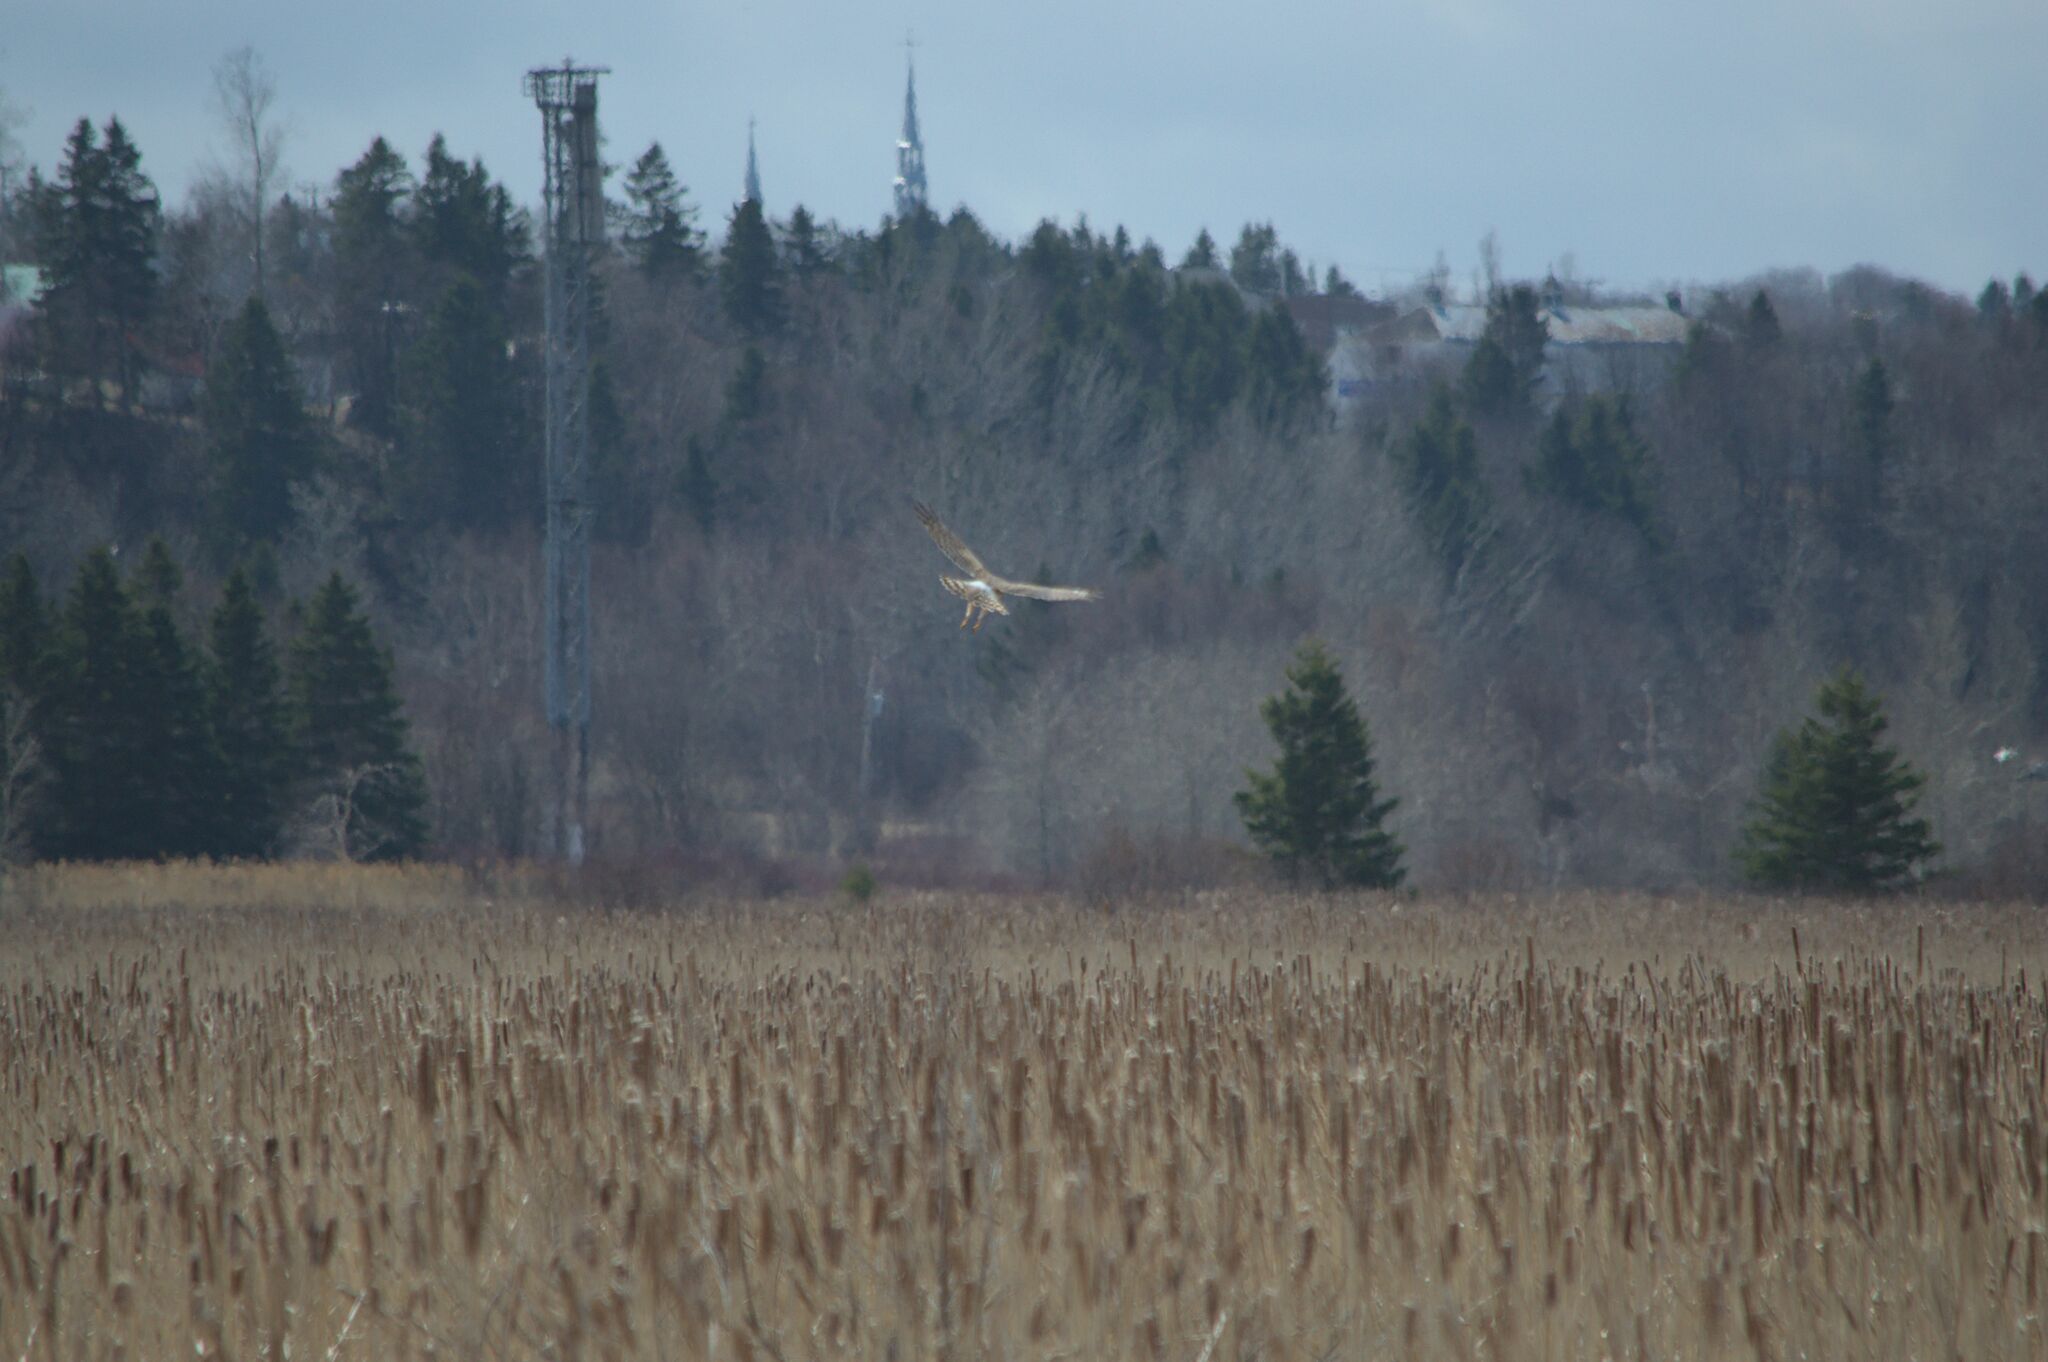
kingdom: Animalia
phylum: Chordata
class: Aves
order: Accipitriformes
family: Accipitridae
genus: Circus
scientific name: Circus cyaneus
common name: Hen harrier
